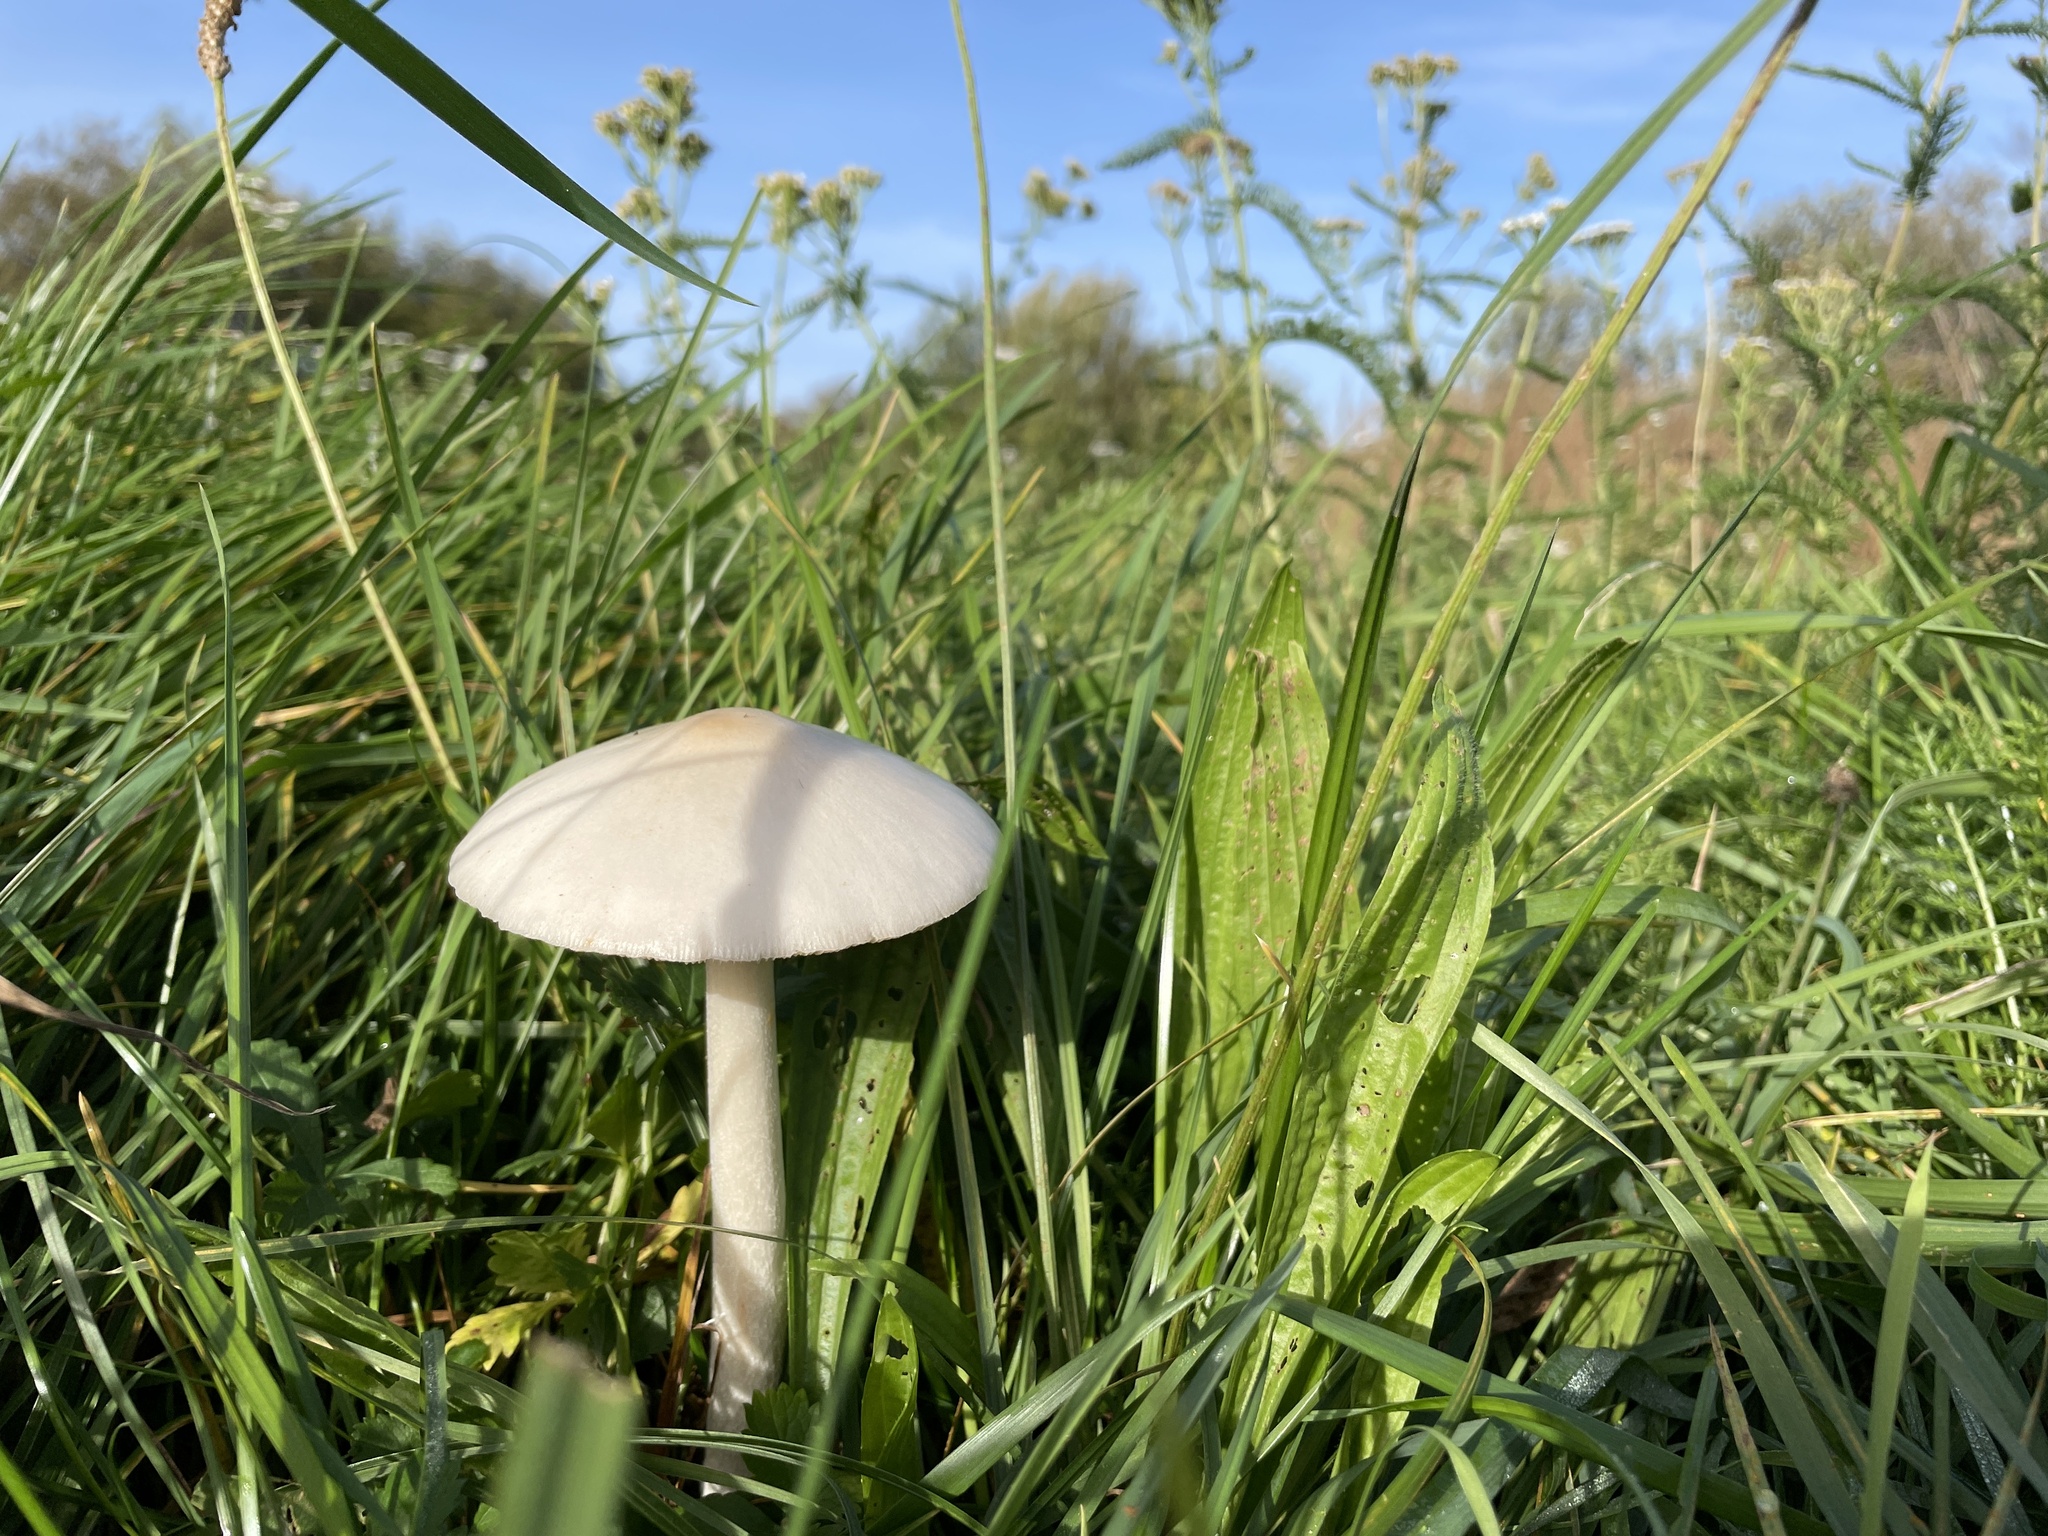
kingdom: Fungi
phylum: Basidiomycota
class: Agaricomycetes
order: Agaricales
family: Pluteaceae
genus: Volvopluteus
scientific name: Volvopluteus gloiocephalus
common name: Stubble rosegill
